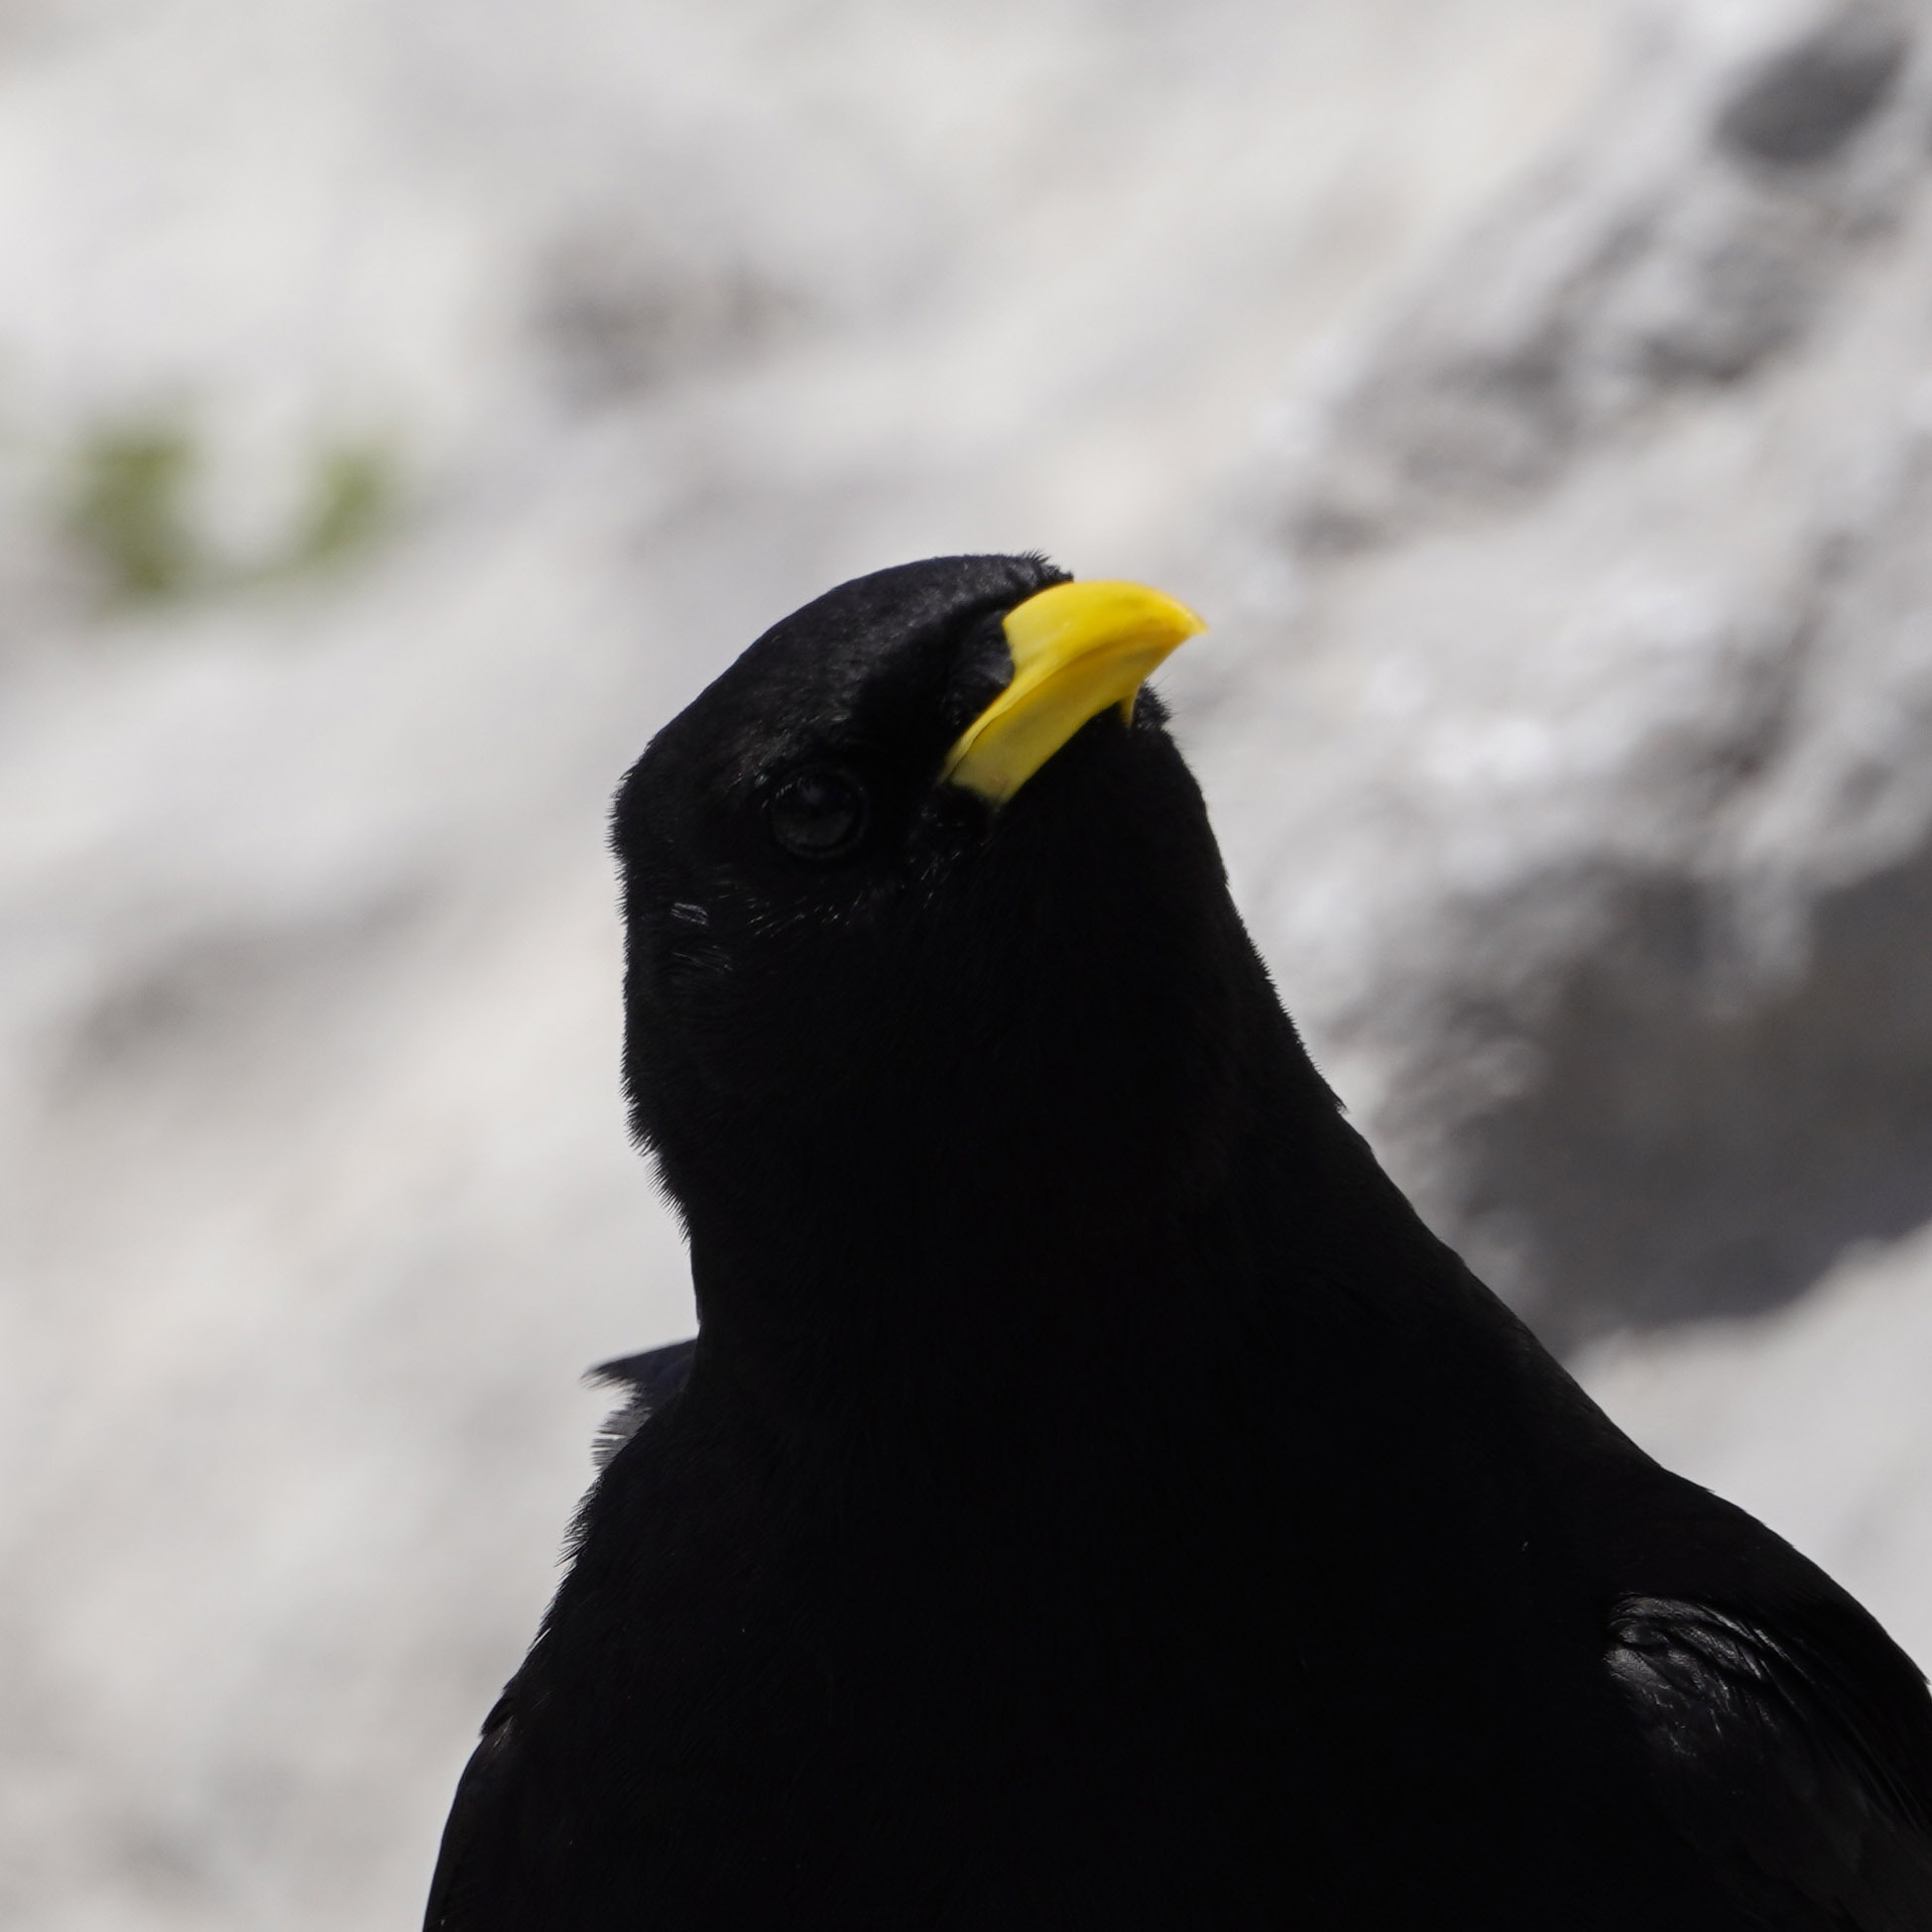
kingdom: Animalia
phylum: Chordata
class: Aves
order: Passeriformes
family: Corvidae
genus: Pyrrhocorax
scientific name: Pyrrhocorax graculus
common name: Alpine chough
